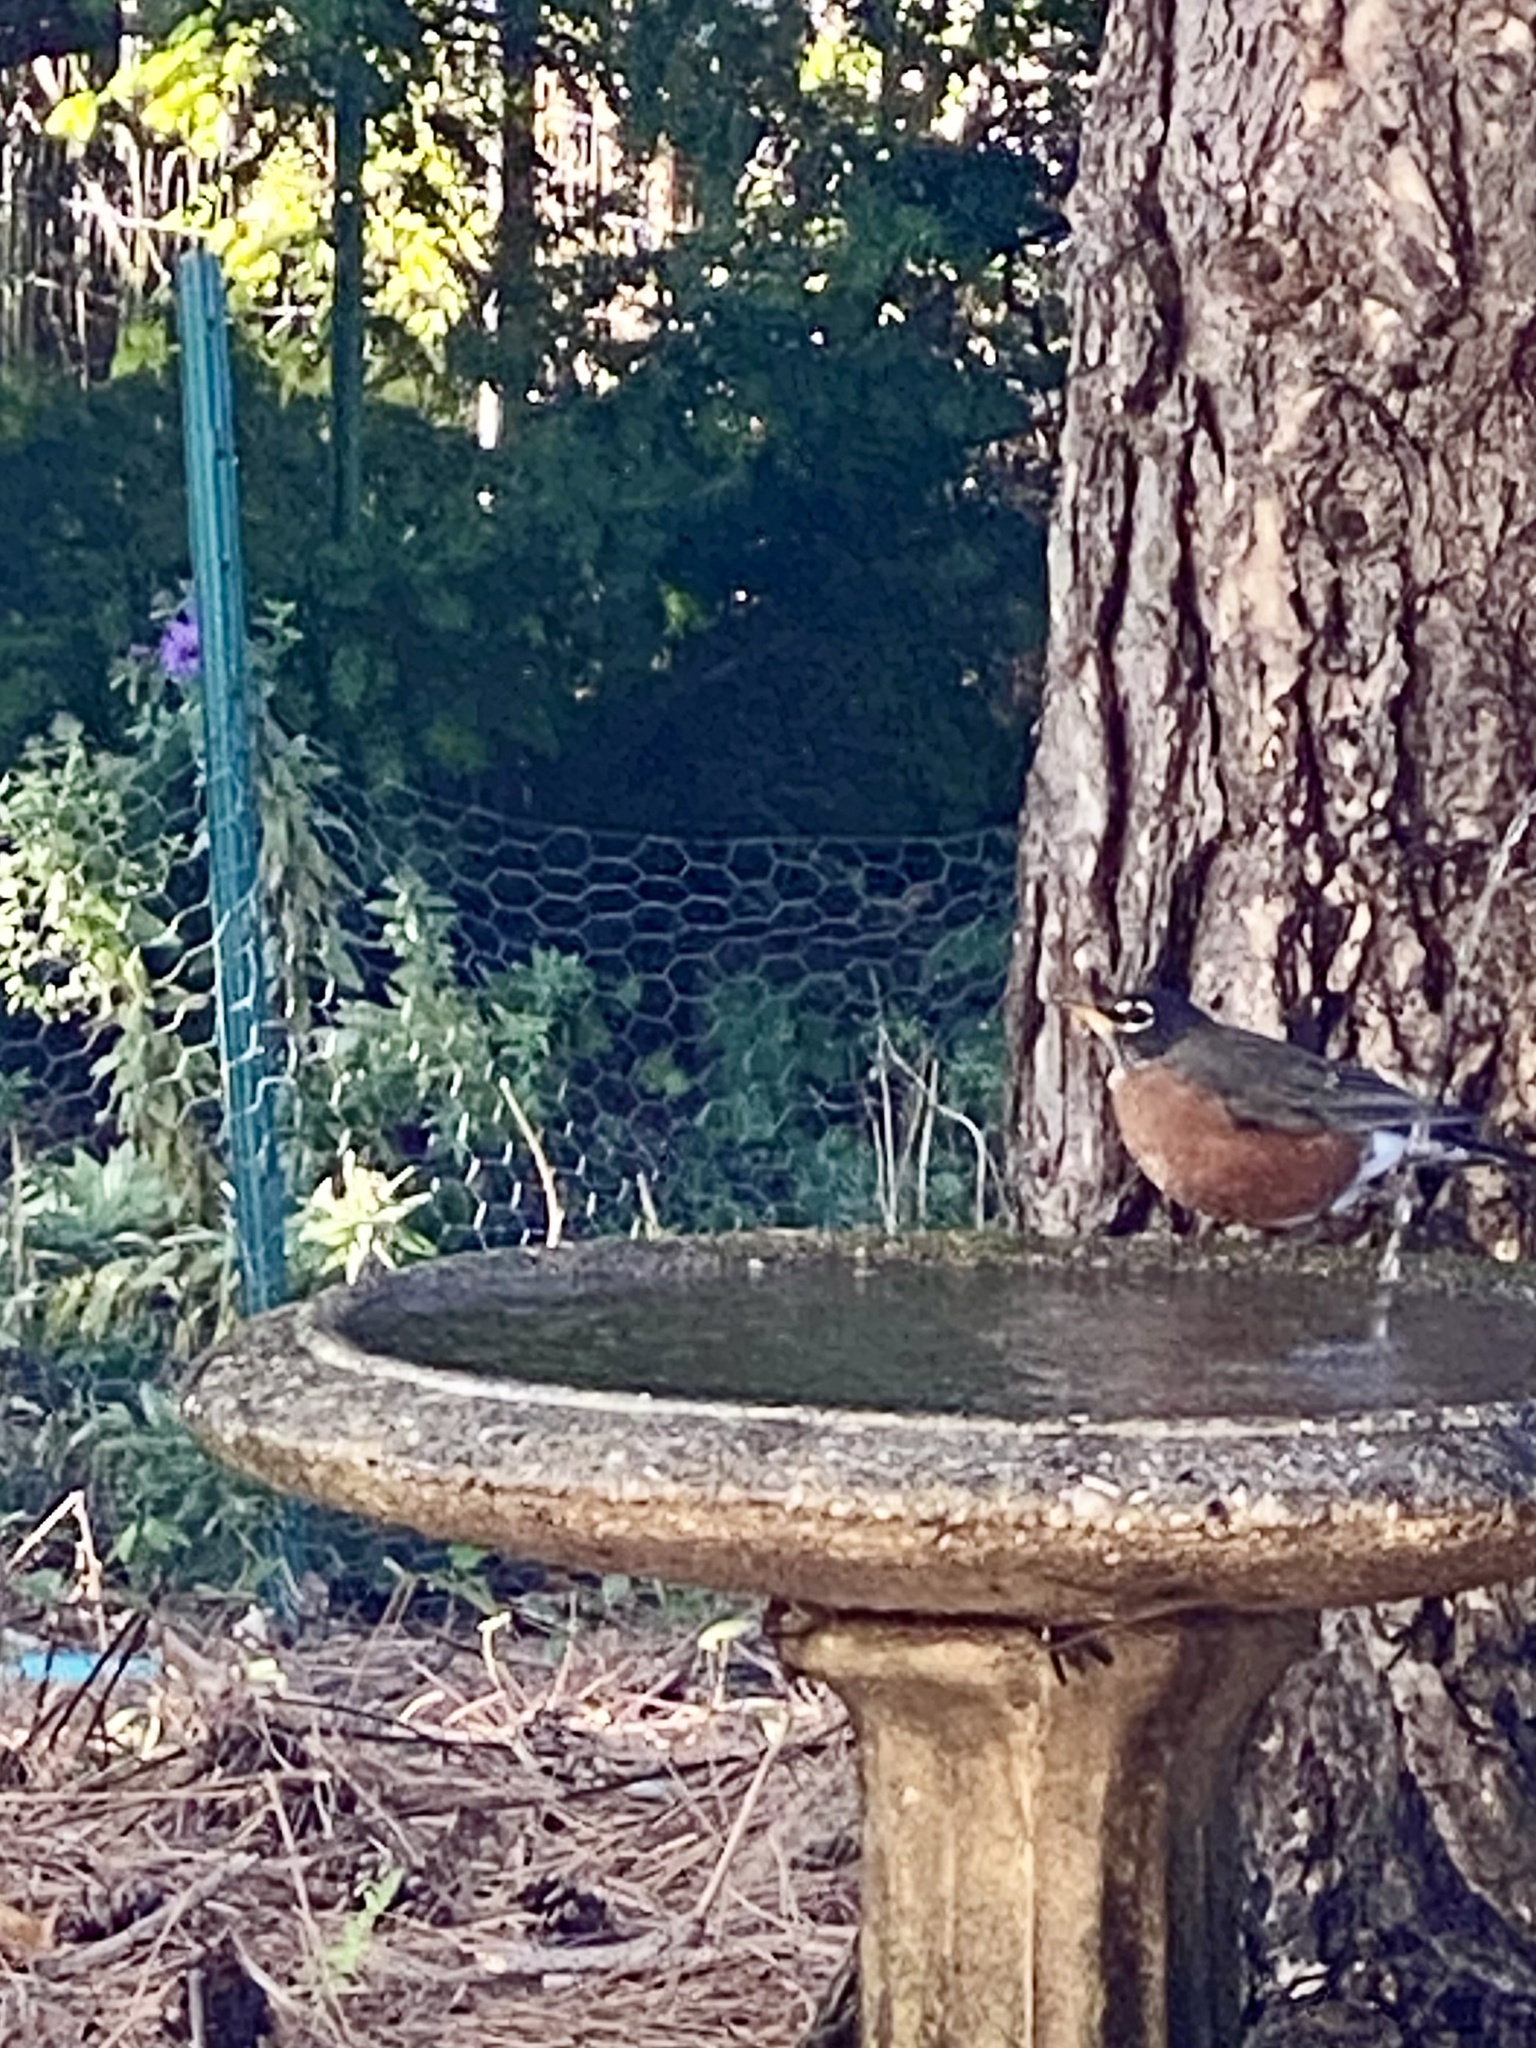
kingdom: Animalia
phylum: Chordata
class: Aves
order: Passeriformes
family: Turdidae
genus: Turdus
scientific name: Turdus migratorius
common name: American robin
